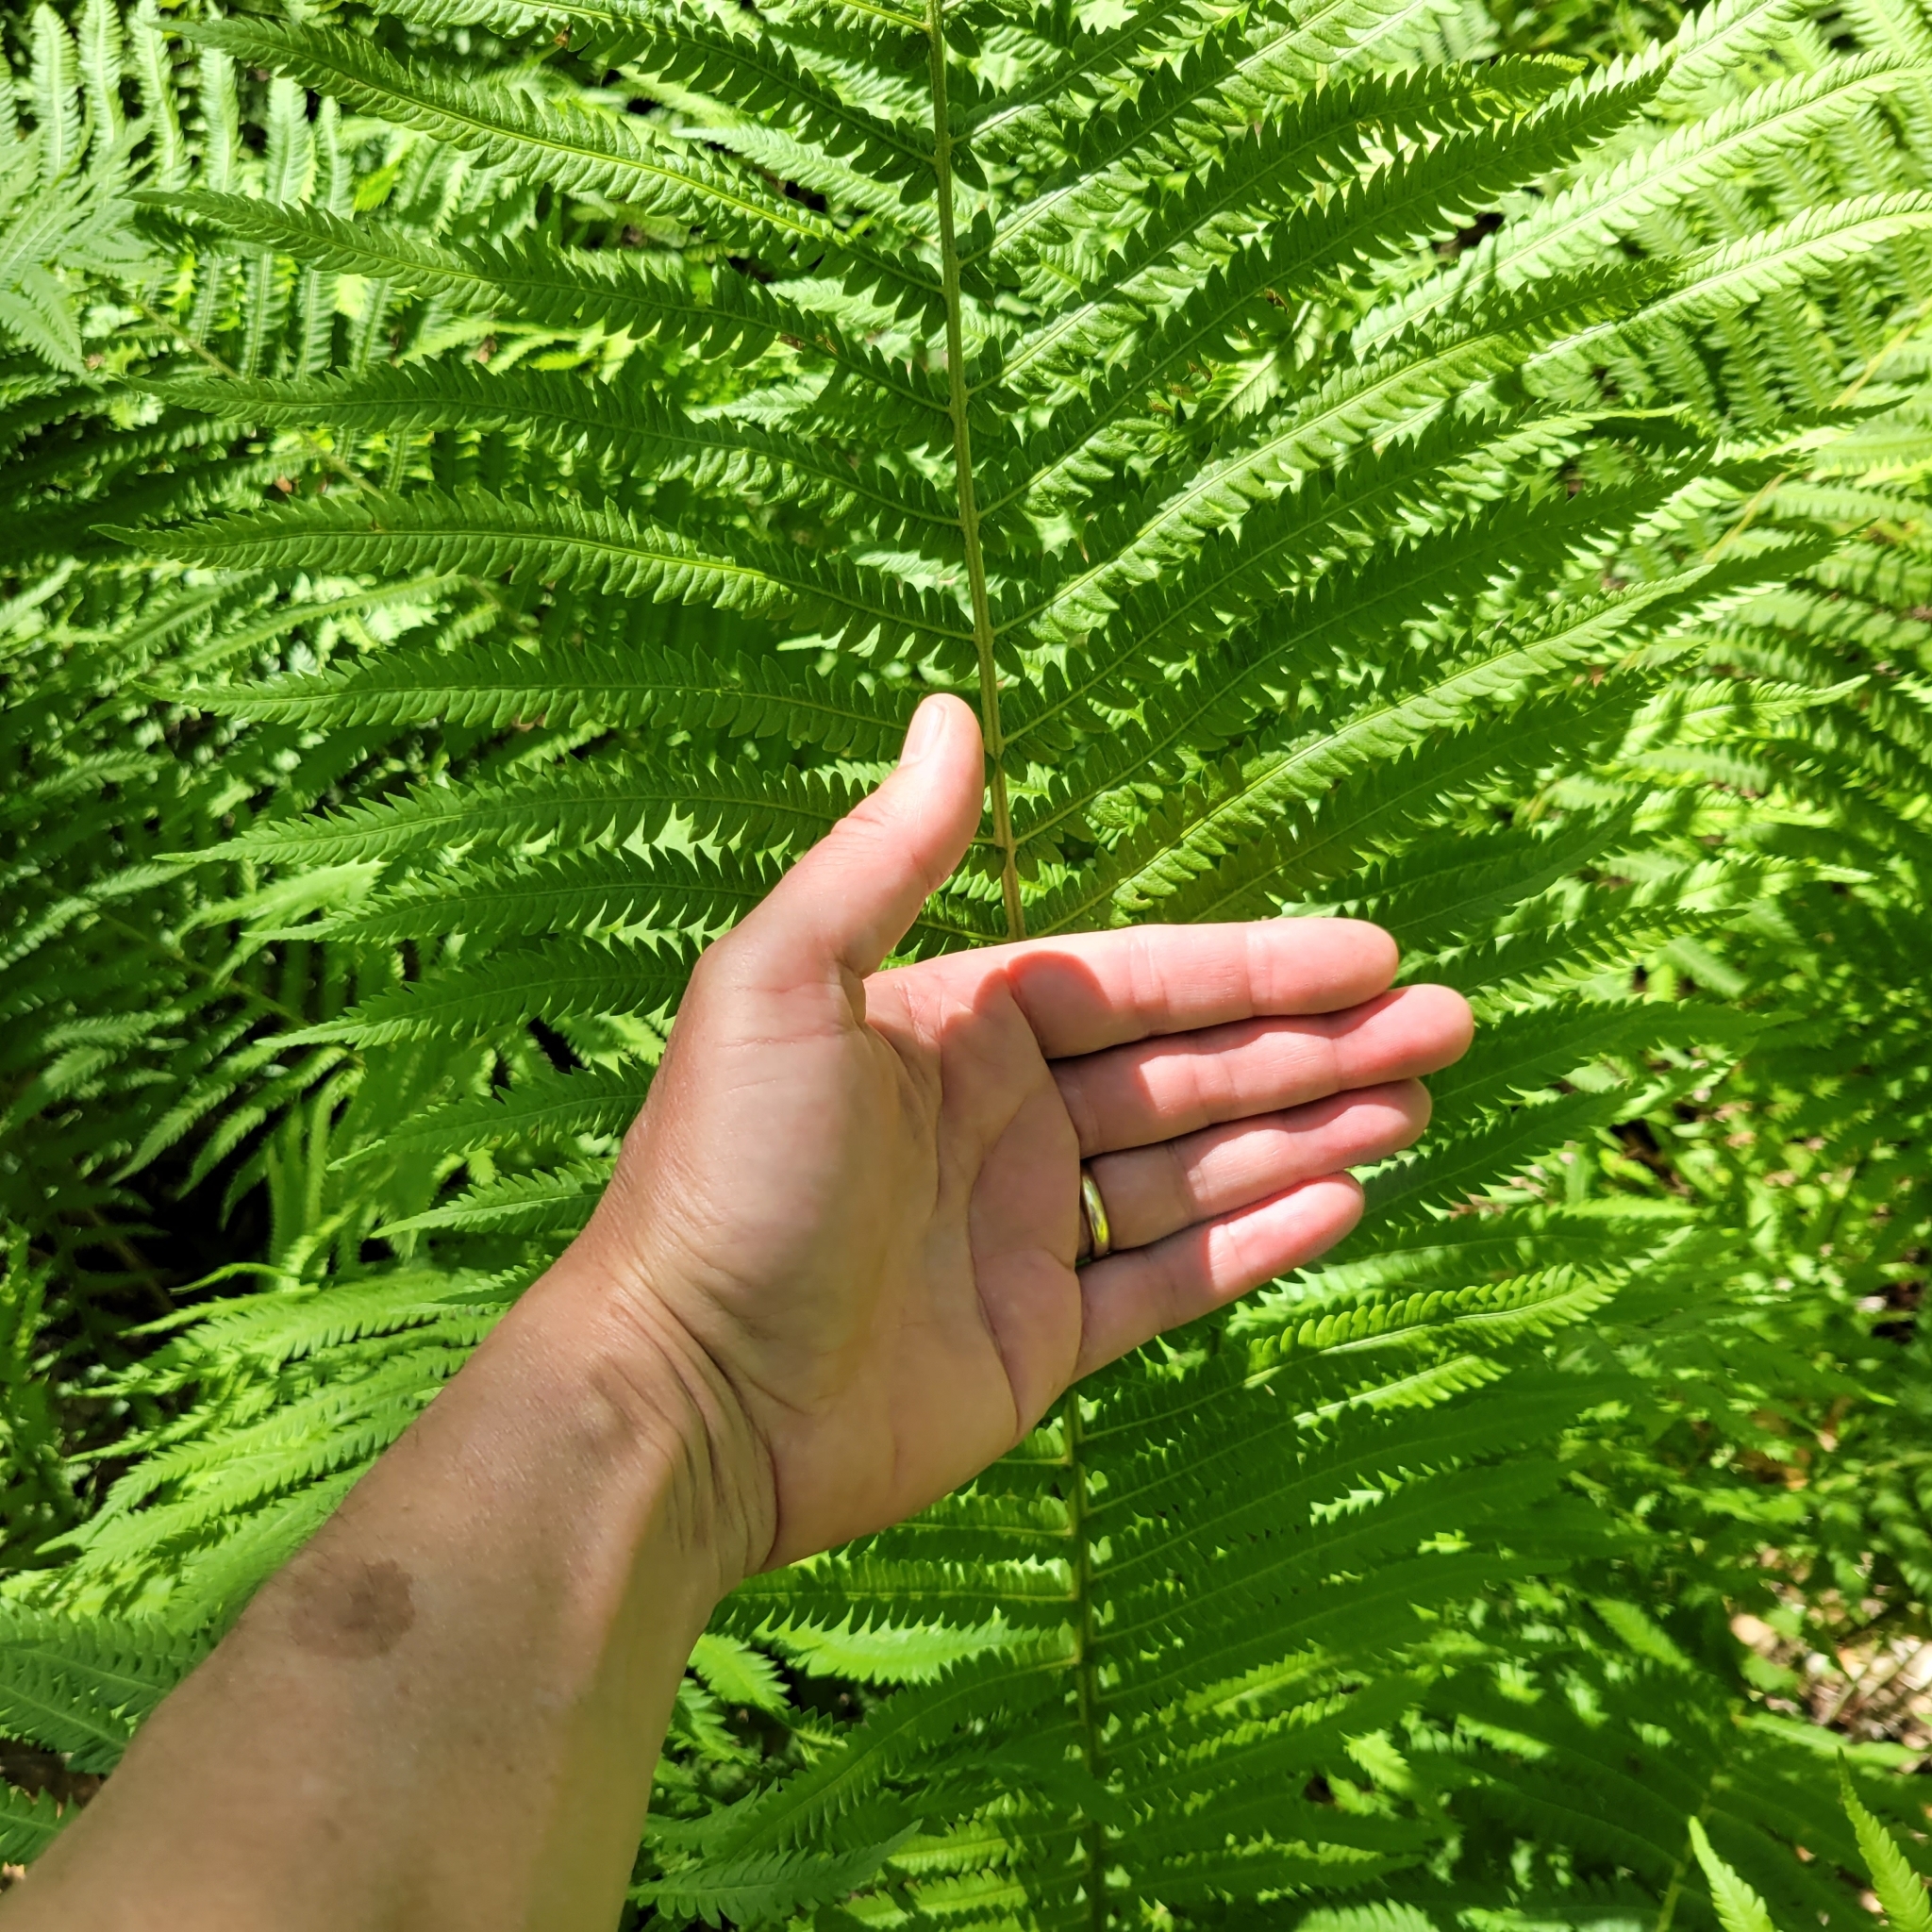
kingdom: Plantae
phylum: Tracheophyta
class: Polypodiopsida
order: Polypodiales
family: Onocleaceae
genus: Matteuccia
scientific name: Matteuccia struthiopteris
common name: Ostrich fern
